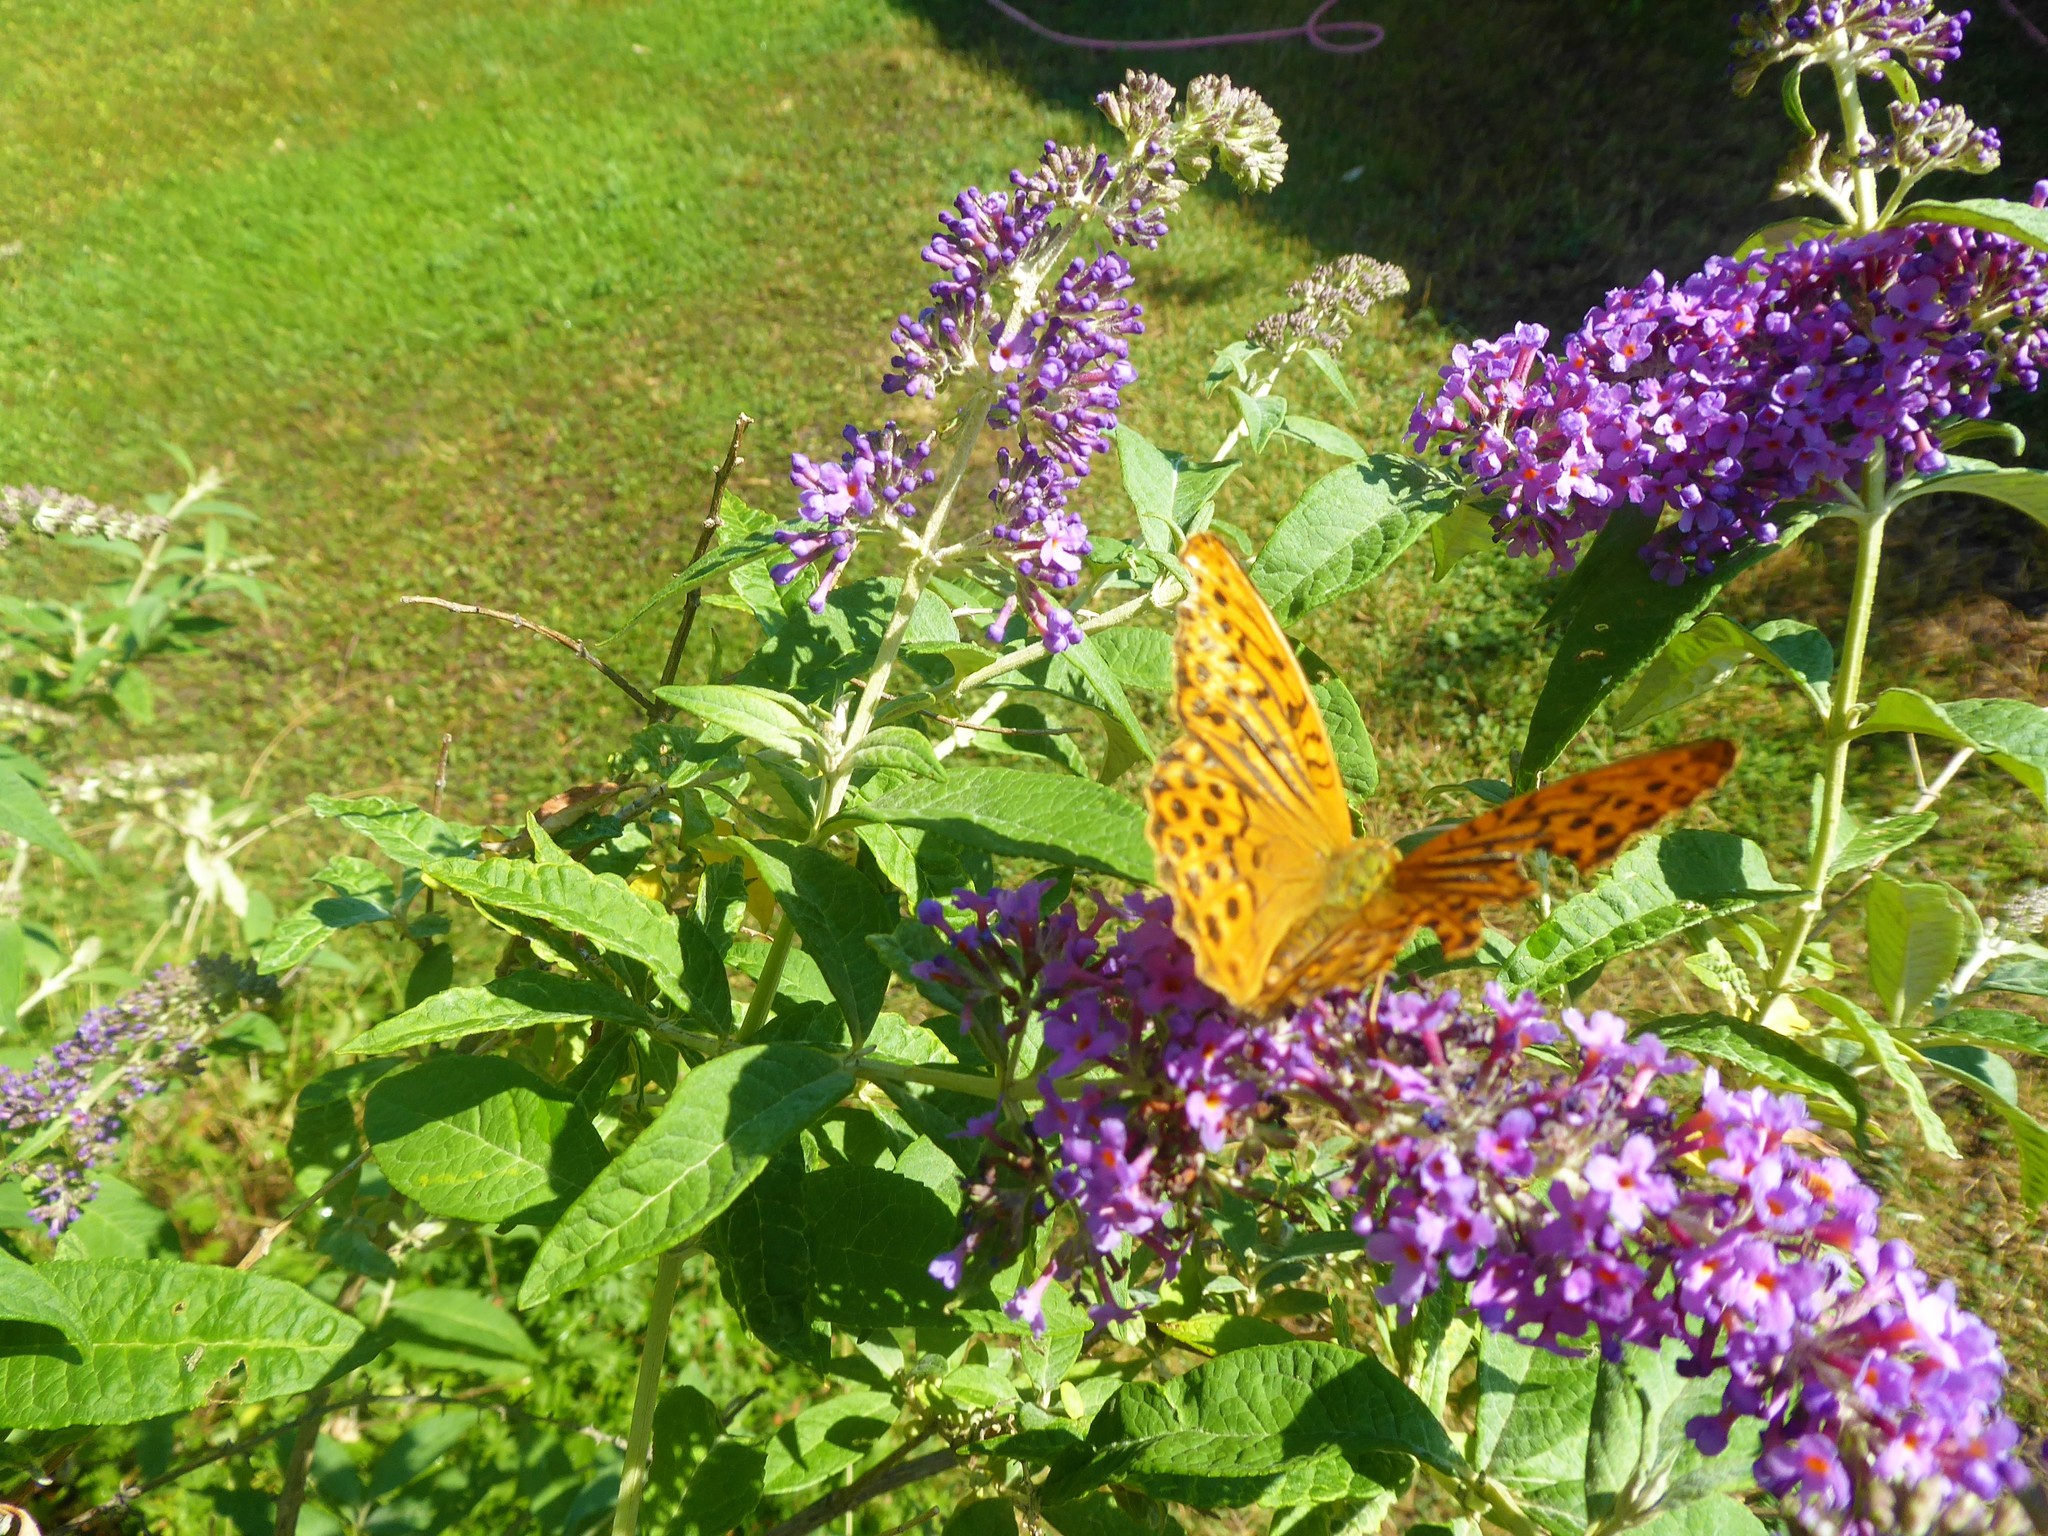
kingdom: Animalia
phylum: Arthropoda
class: Insecta
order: Lepidoptera
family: Nymphalidae
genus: Argynnis
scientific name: Argynnis paphia
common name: Silver-washed fritillary
